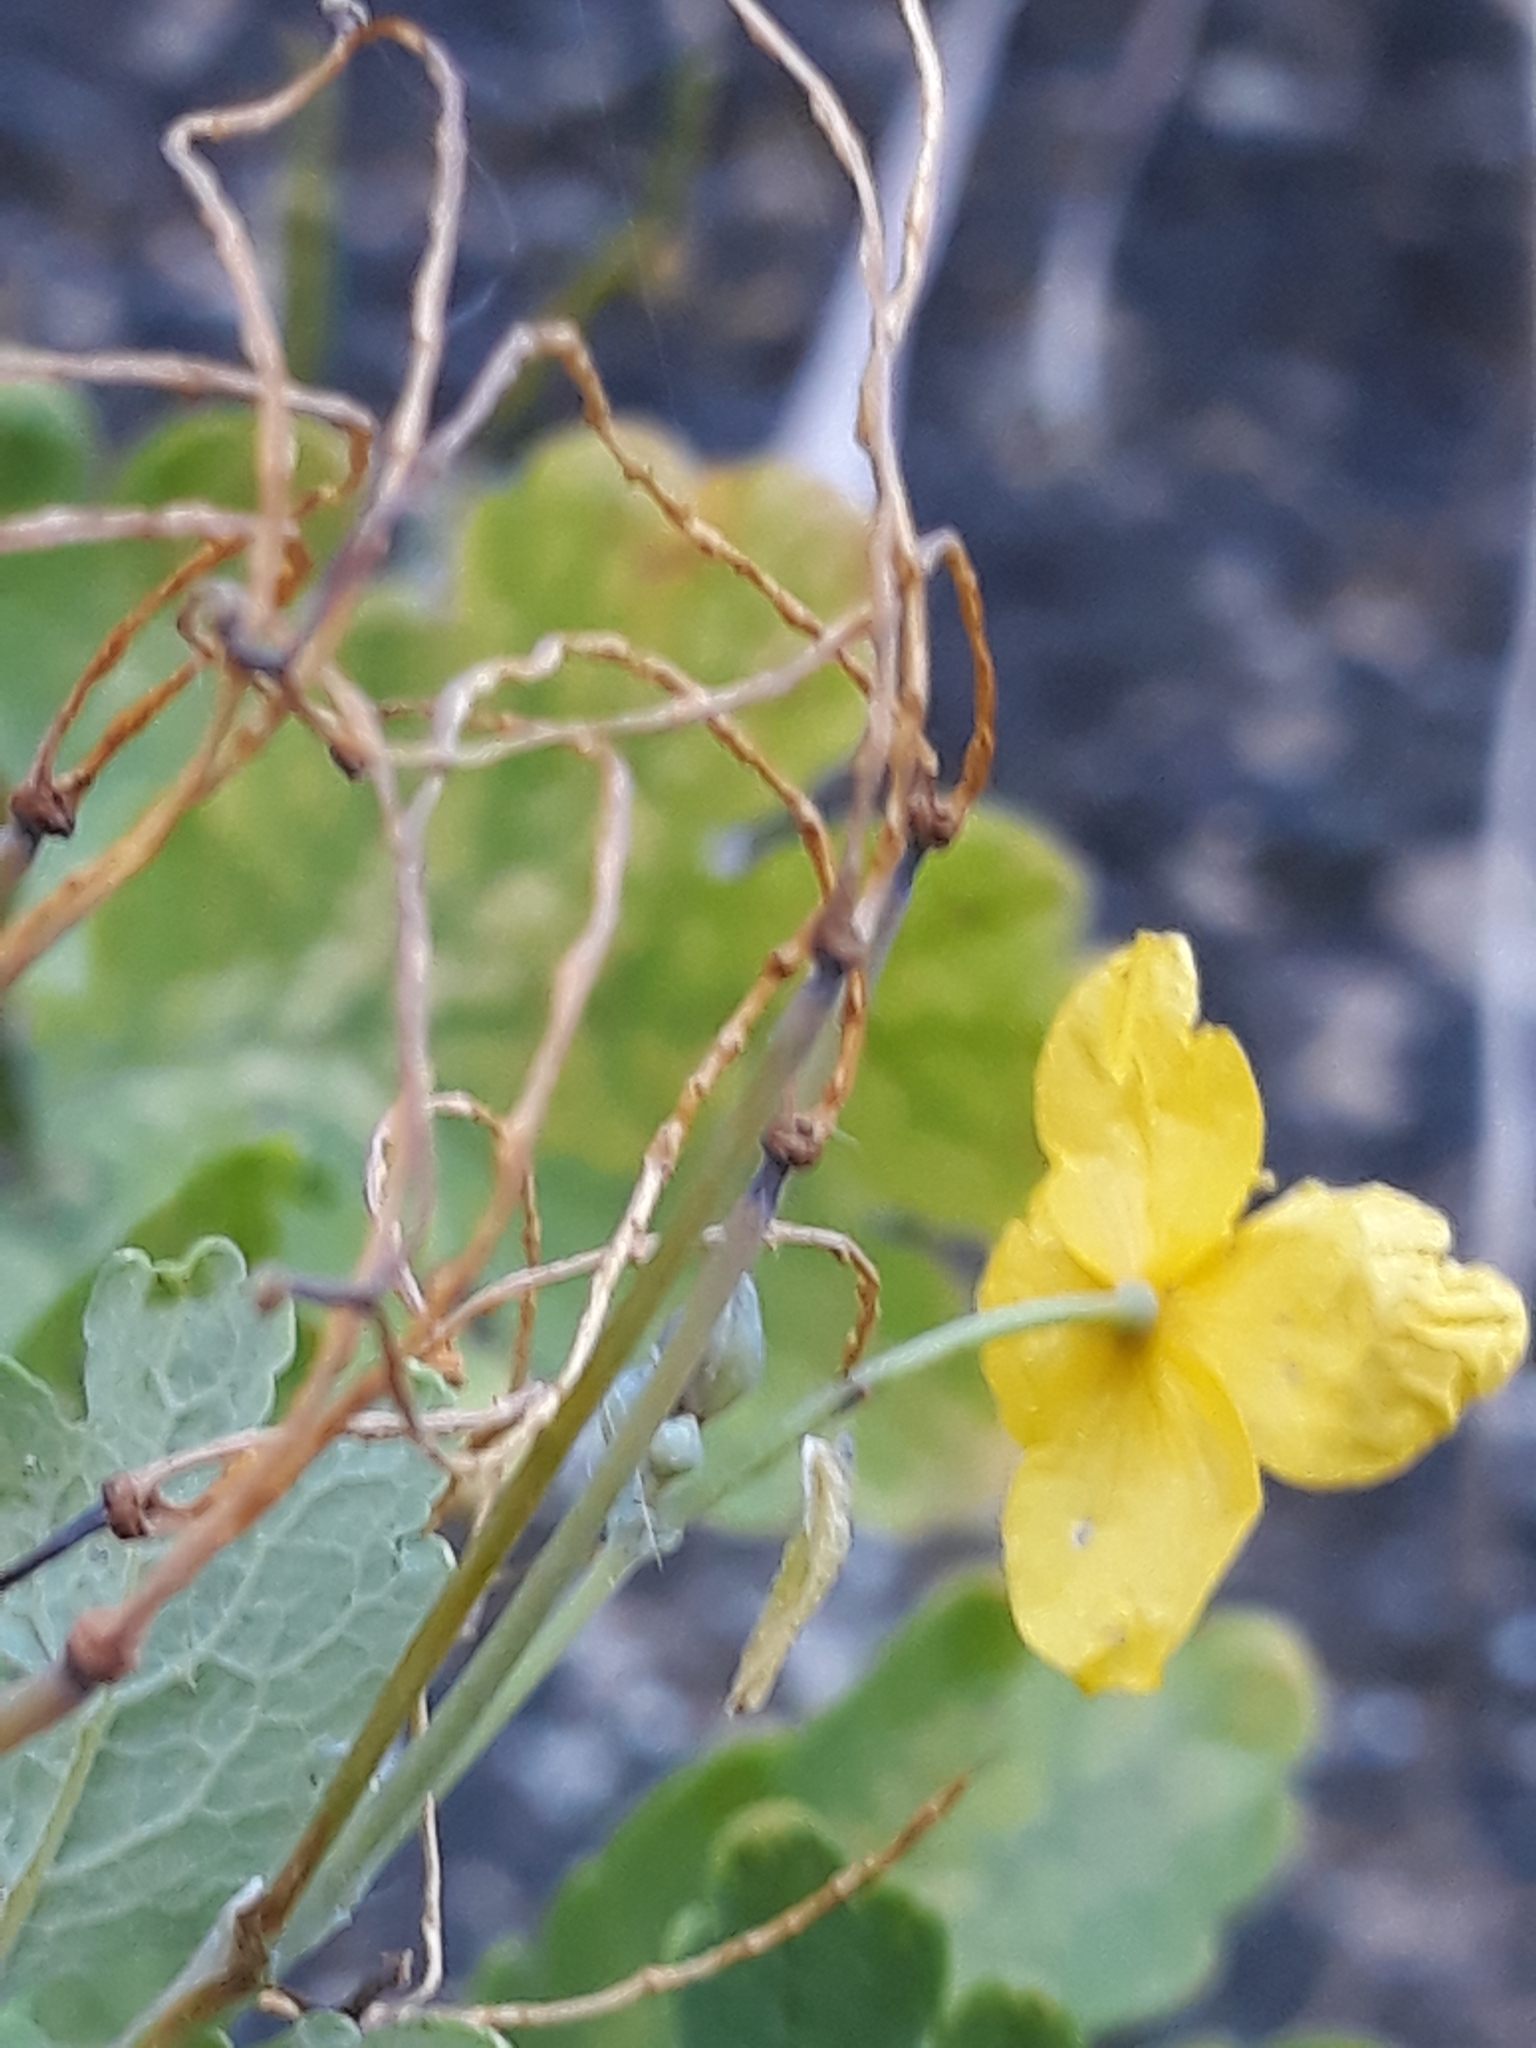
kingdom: Plantae
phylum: Tracheophyta
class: Magnoliopsida
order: Ranunculales
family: Papaveraceae
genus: Chelidonium
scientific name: Chelidonium majus
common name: Greater celandine
